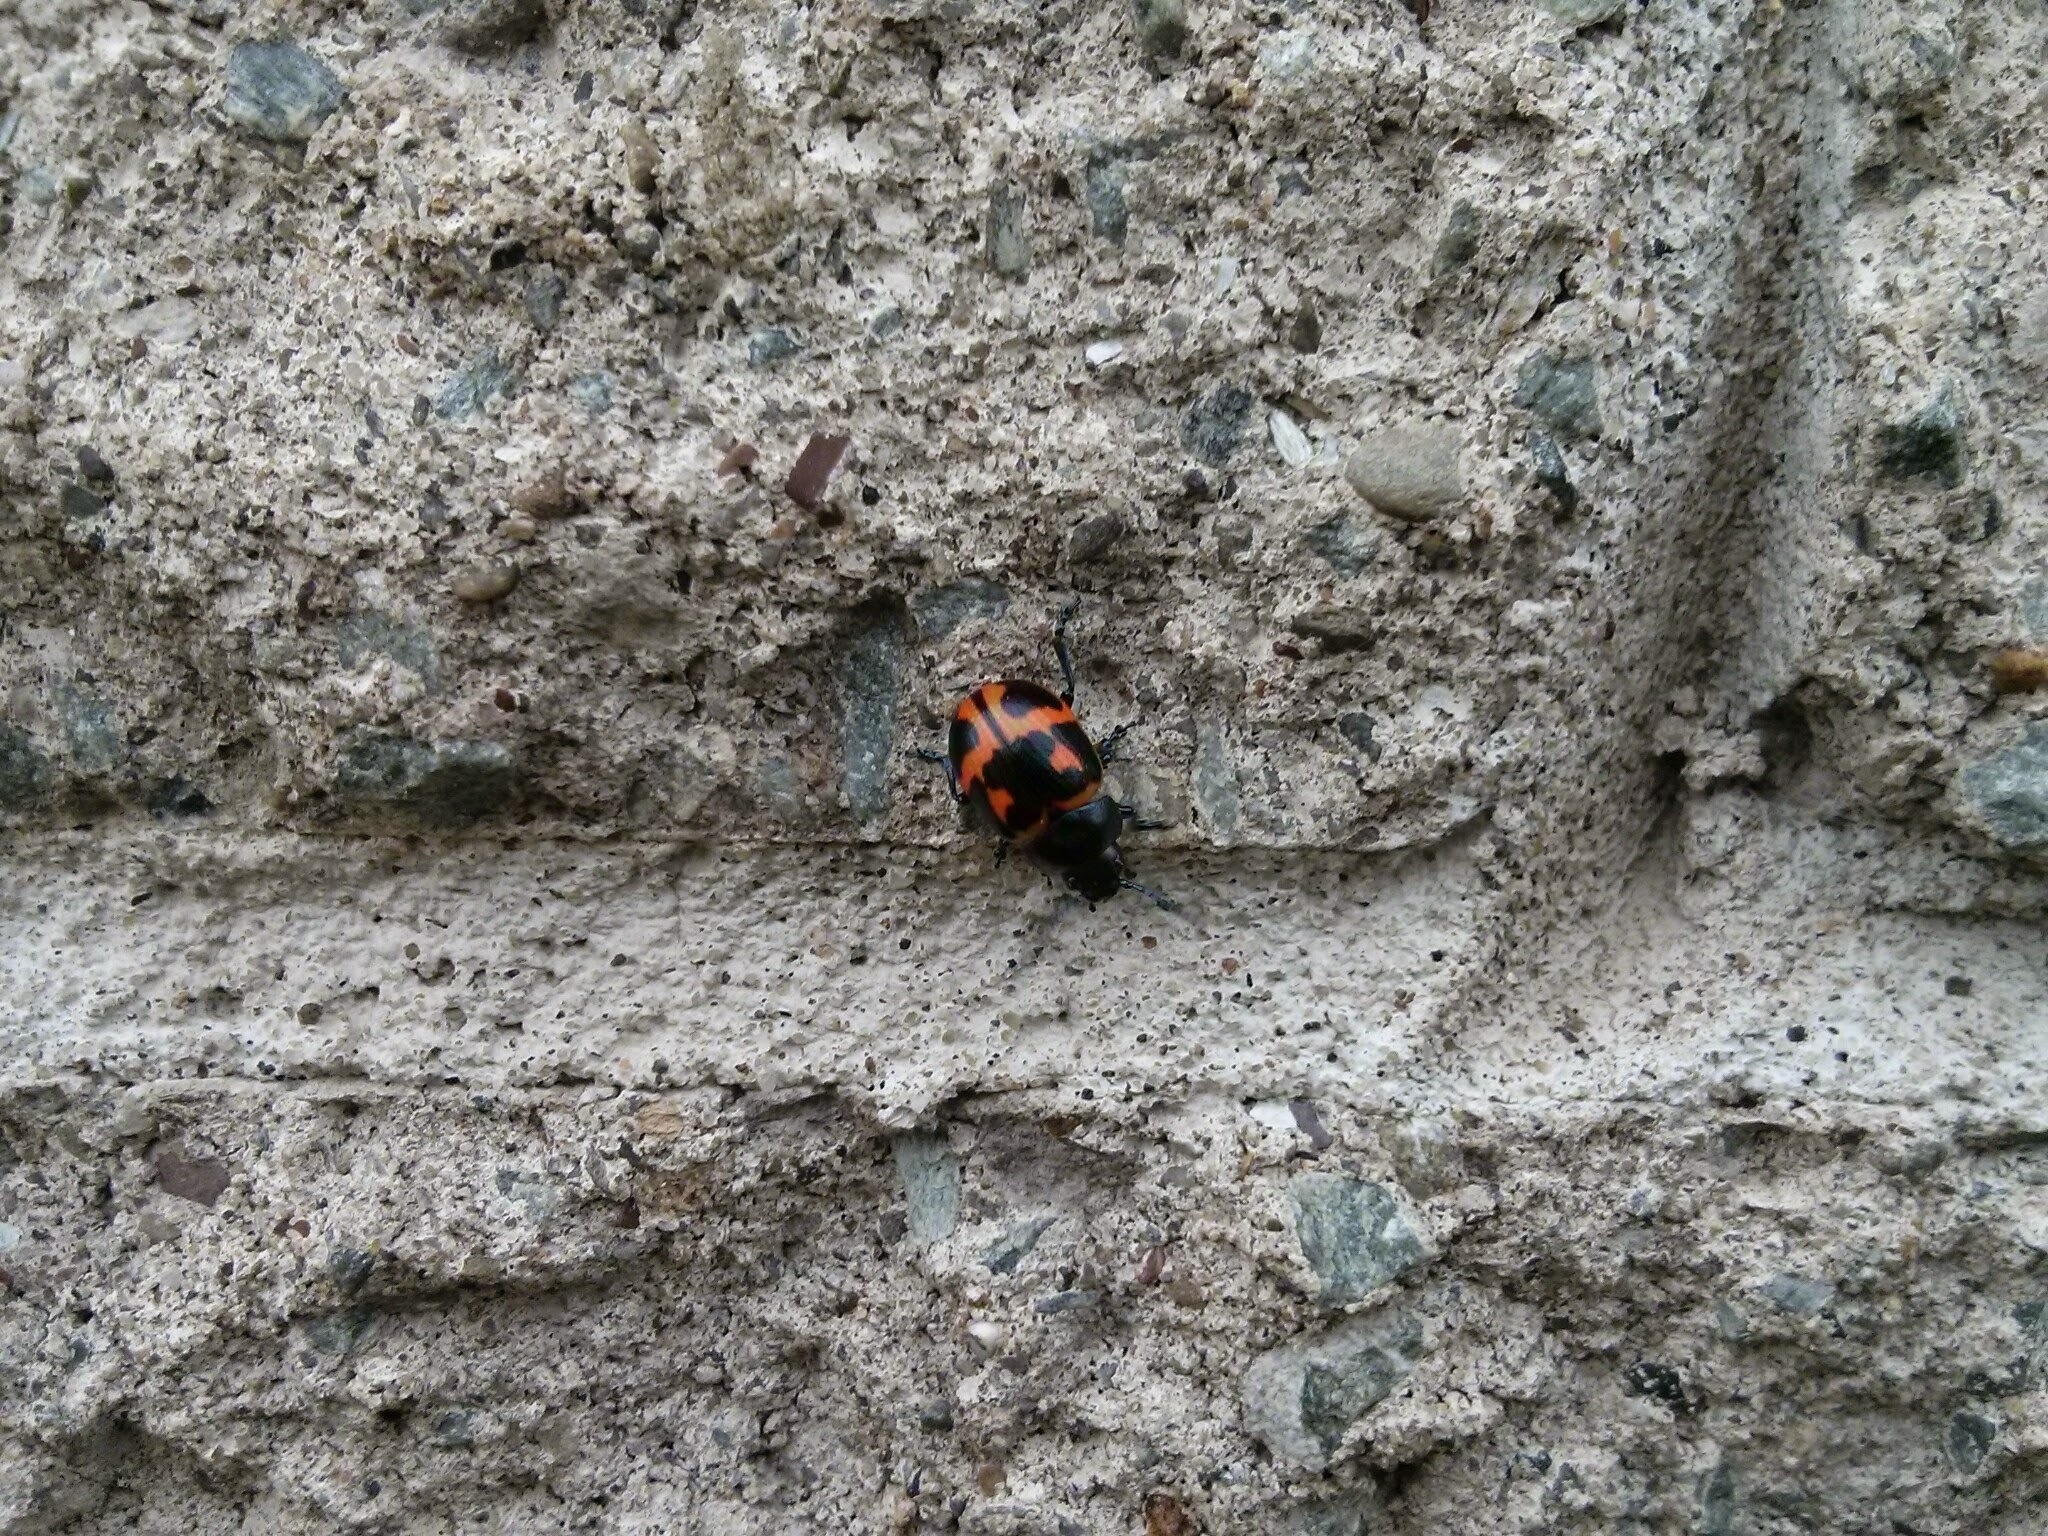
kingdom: Animalia
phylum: Arthropoda
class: Insecta
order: Coleoptera
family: Chrysomelidae
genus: Labidomera
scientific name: Labidomera clivicollis
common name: Swamp milkweed leaf beetle
